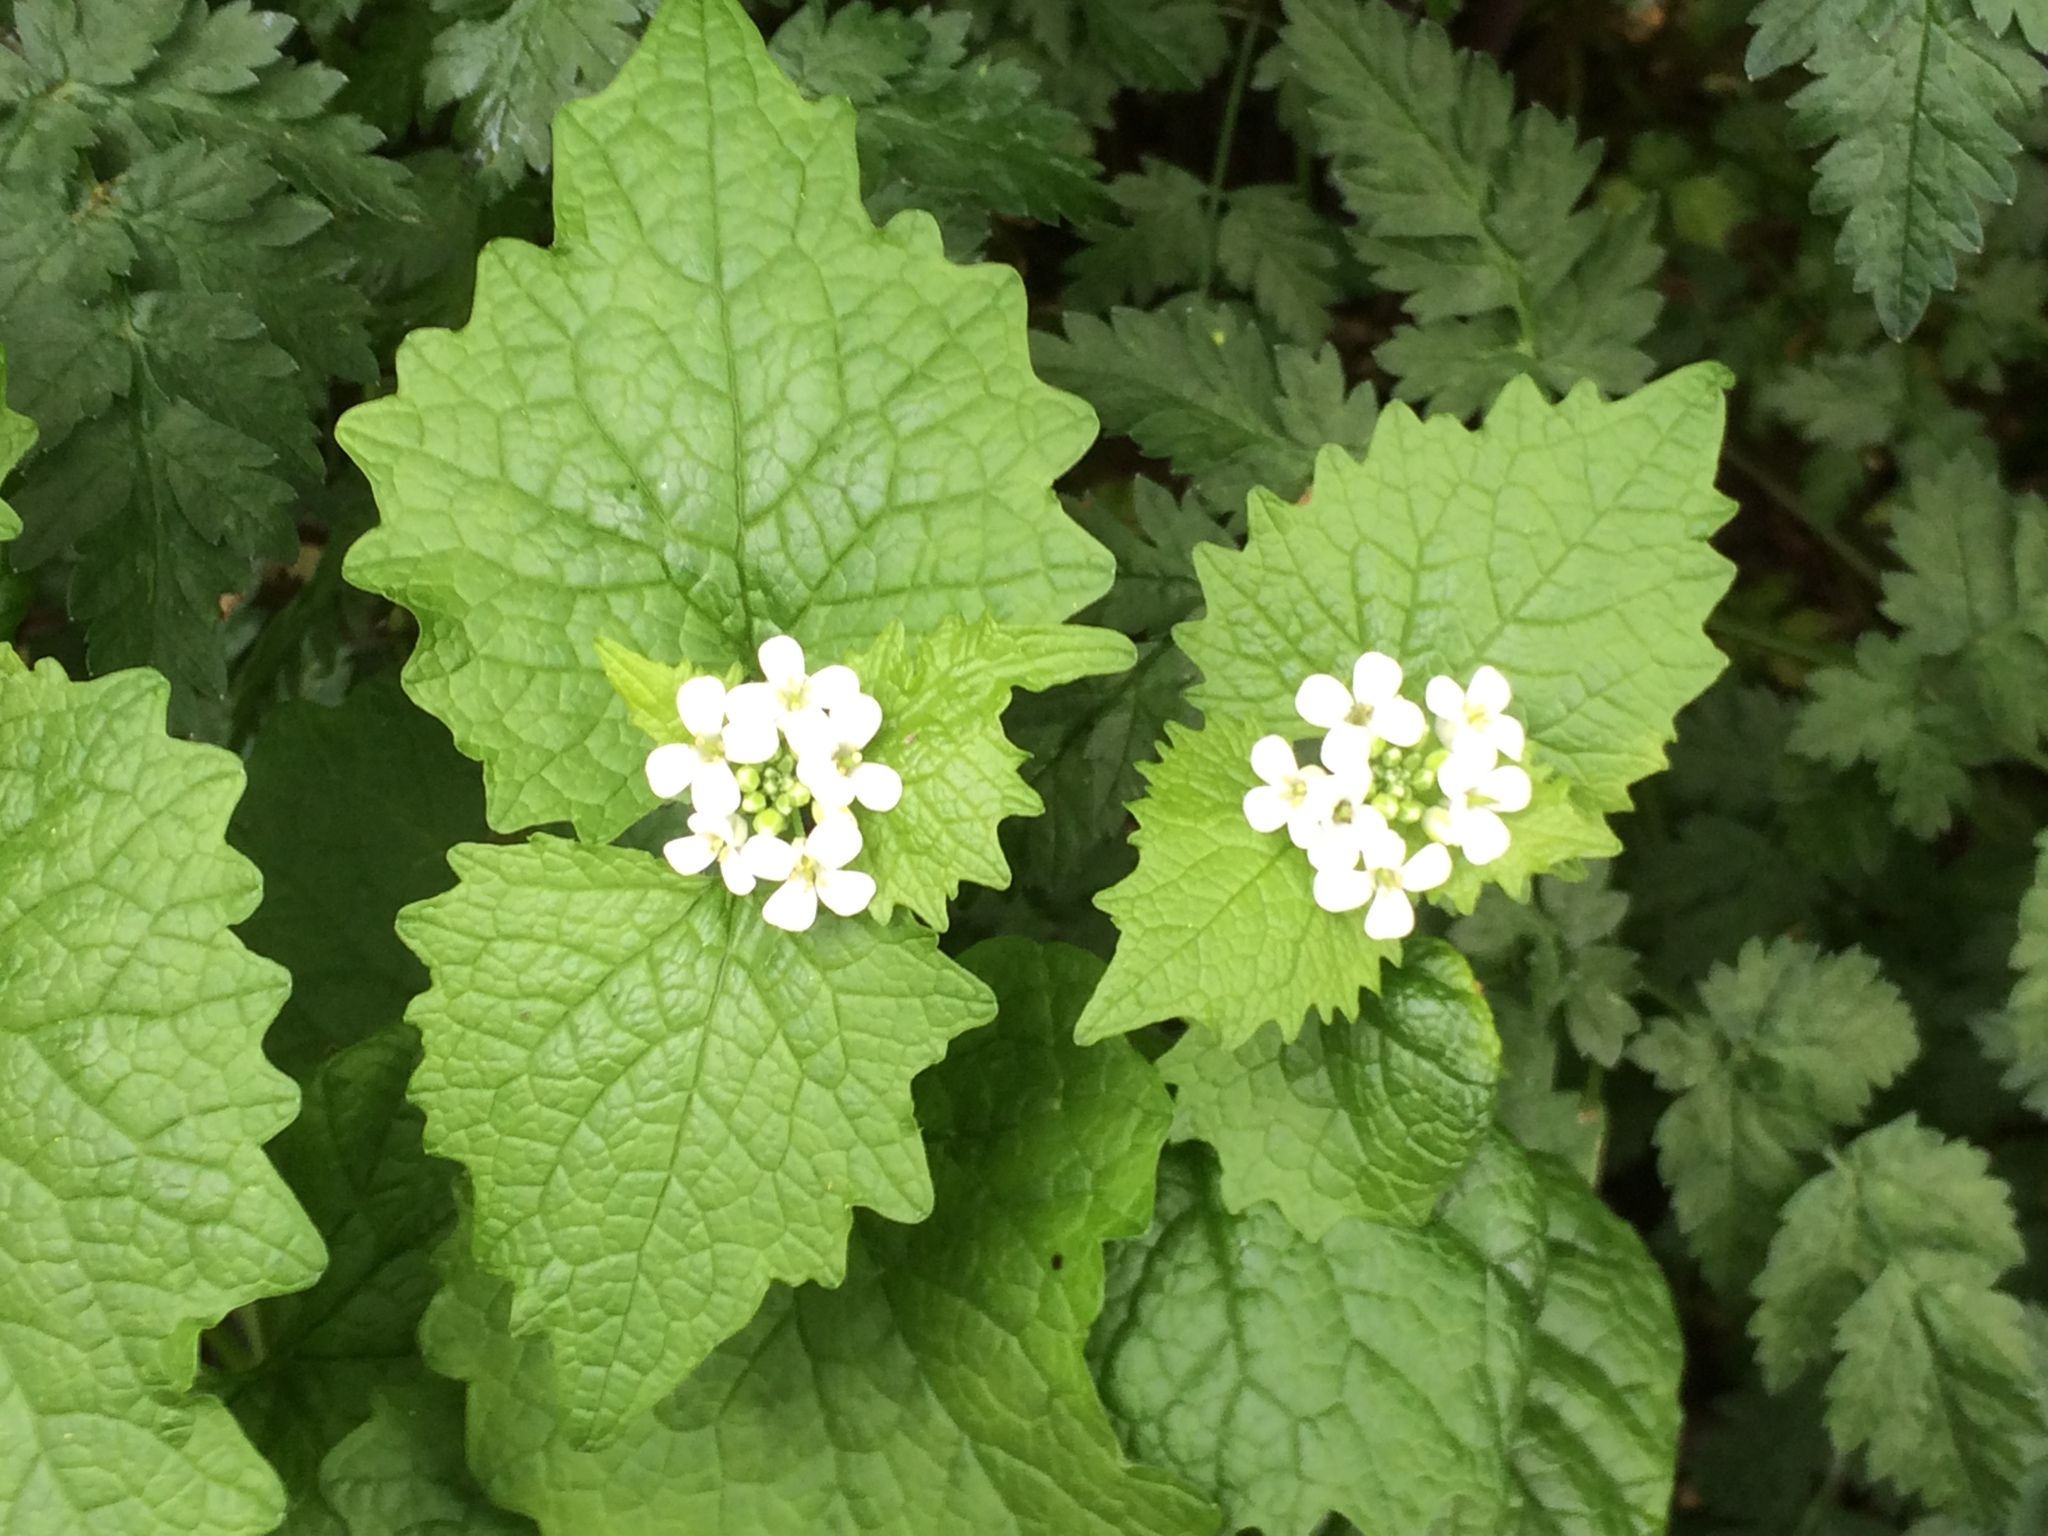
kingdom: Plantae
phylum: Tracheophyta
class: Magnoliopsida
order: Brassicales
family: Brassicaceae
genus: Alliaria
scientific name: Alliaria petiolata
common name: Garlic mustard
